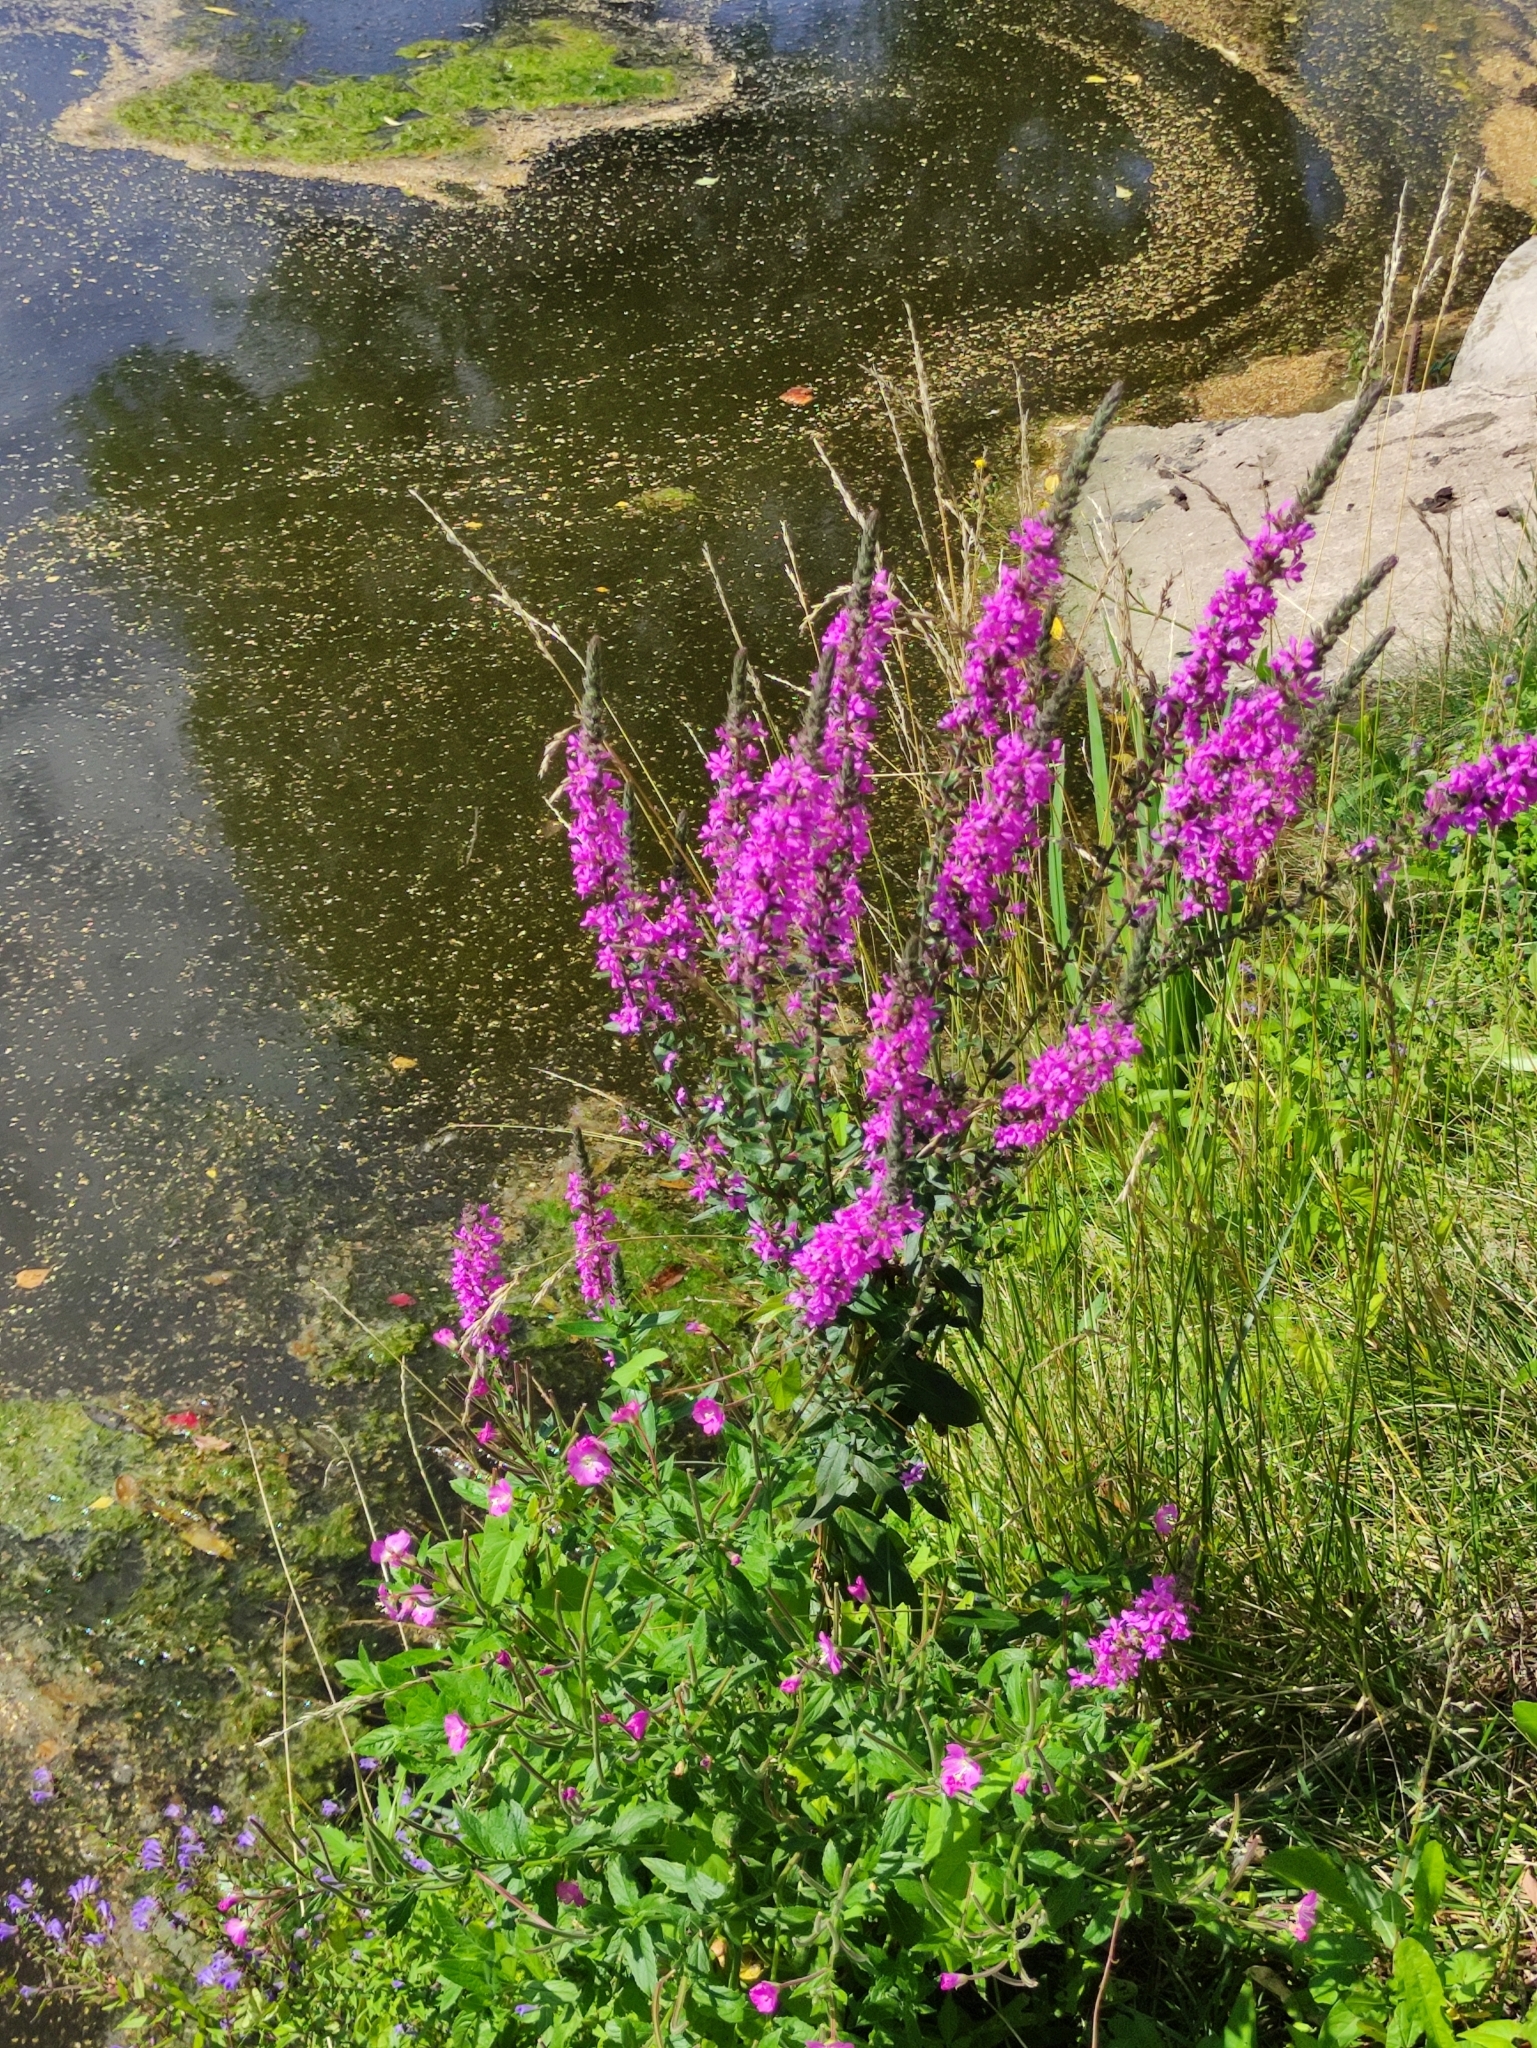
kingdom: Plantae
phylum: Tracheophyta
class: Magnoliopsida
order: Myrtales
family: Lythraceae
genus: Lythrum
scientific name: Lythrum salicaria
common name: Purple loosestrife
